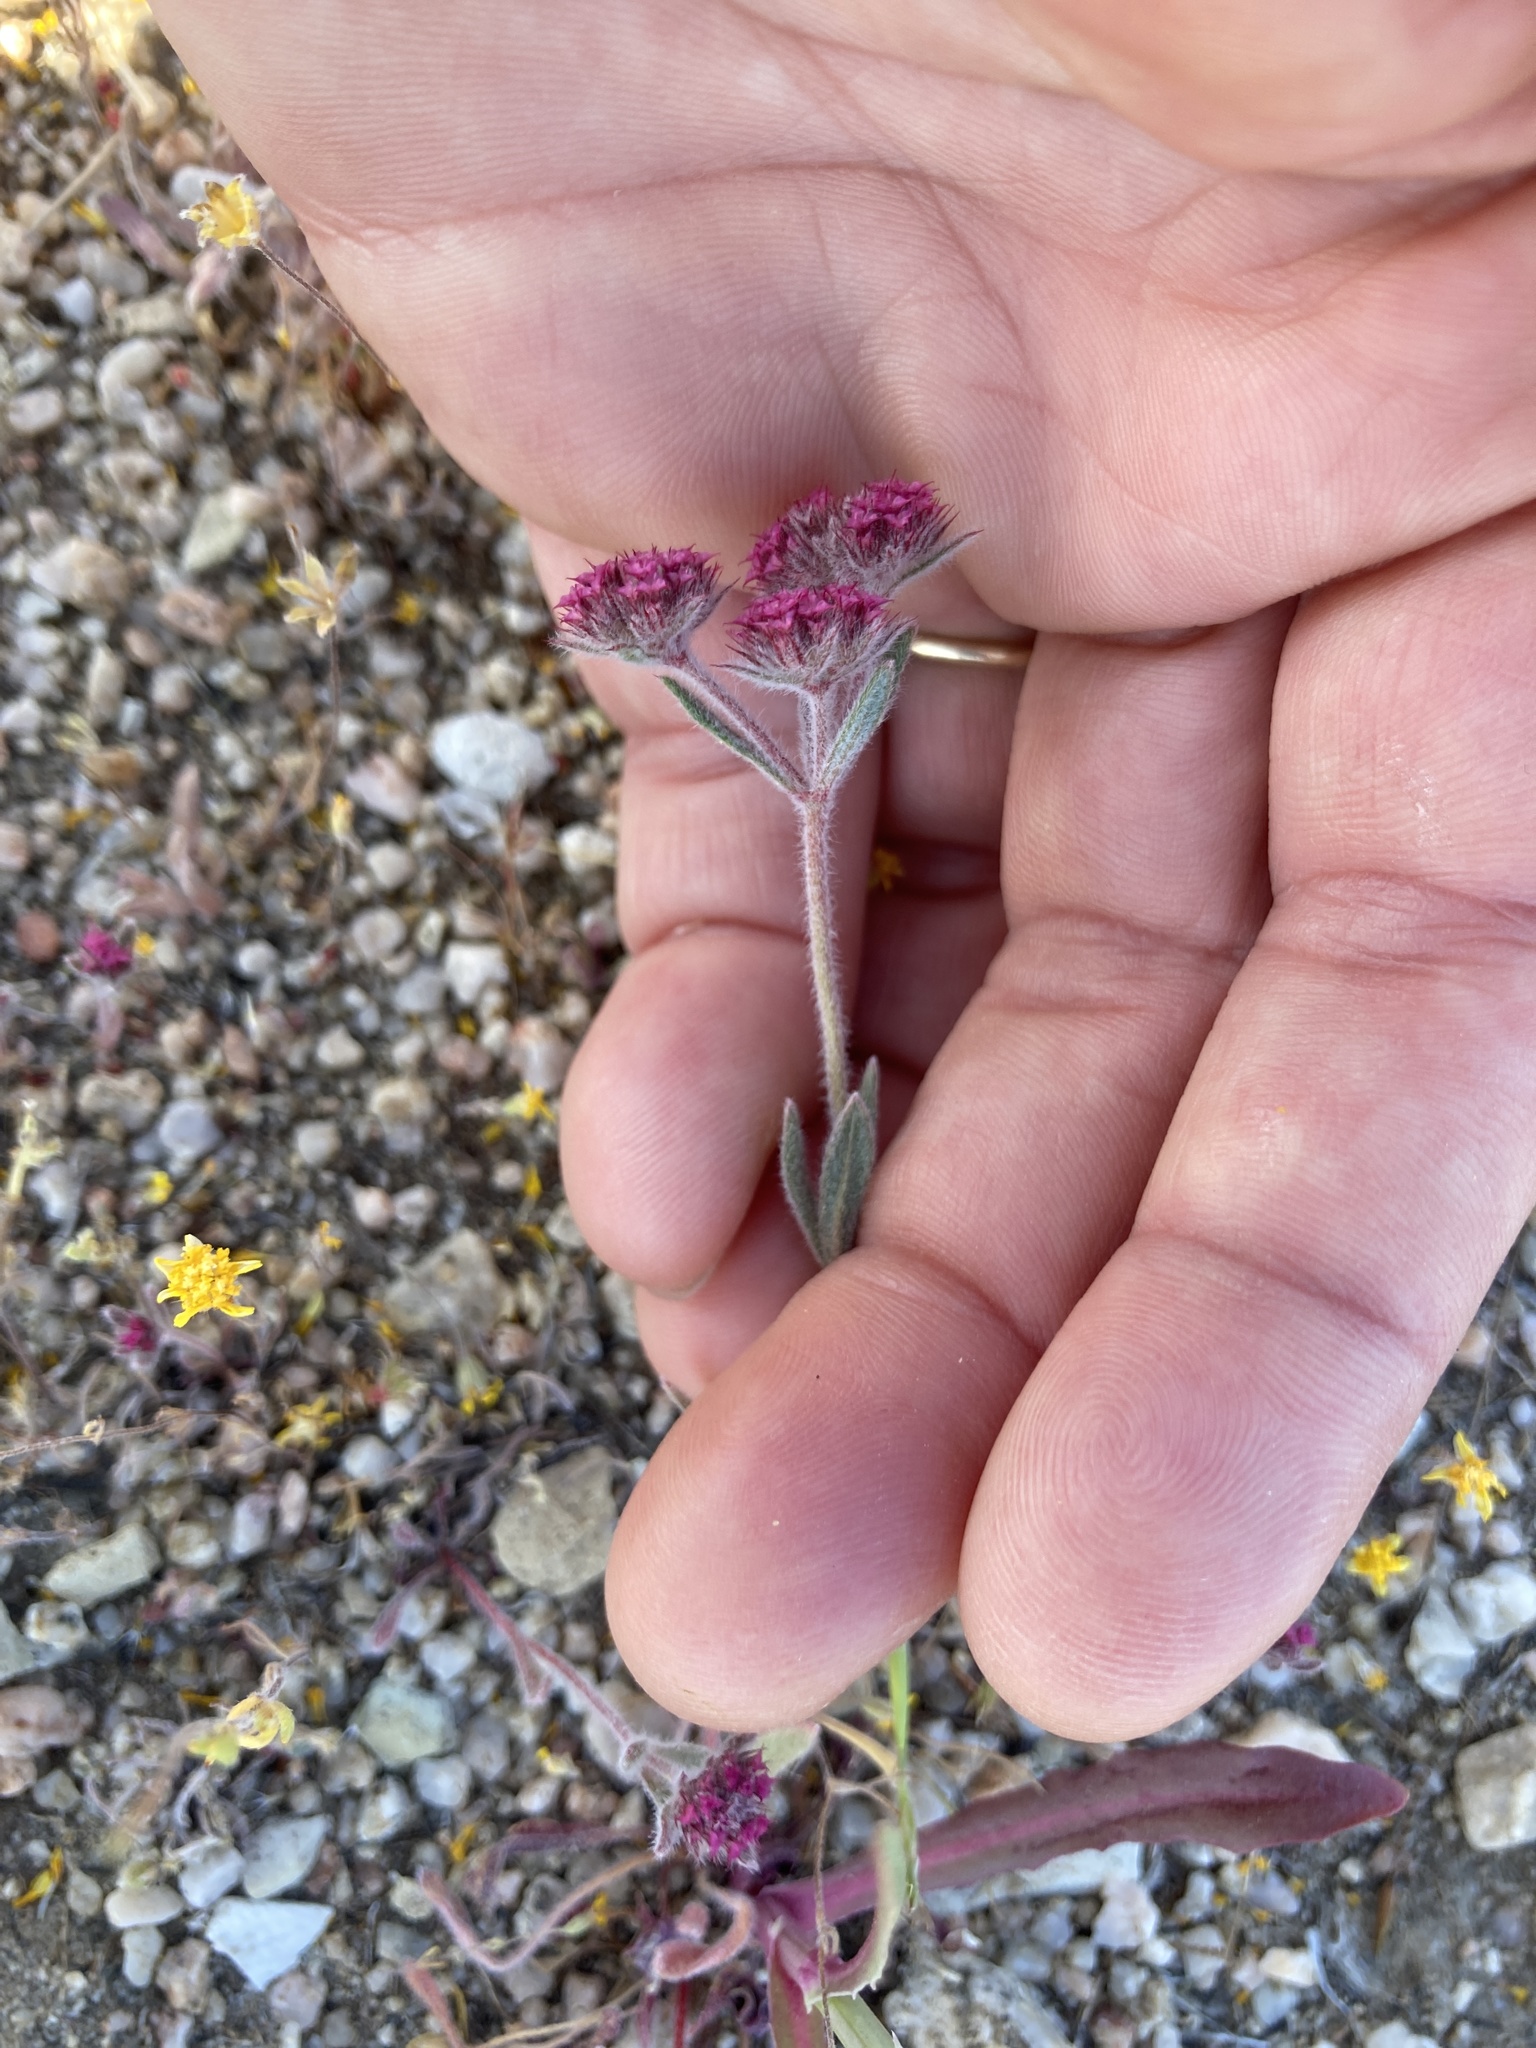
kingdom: Plantae
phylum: Tracheophyta
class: Magnoliopsida
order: Caryophyllales
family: Polygonaceae
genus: Chorizanthe
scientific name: Chorizanthe douglasii
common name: Douglas's spineflower
